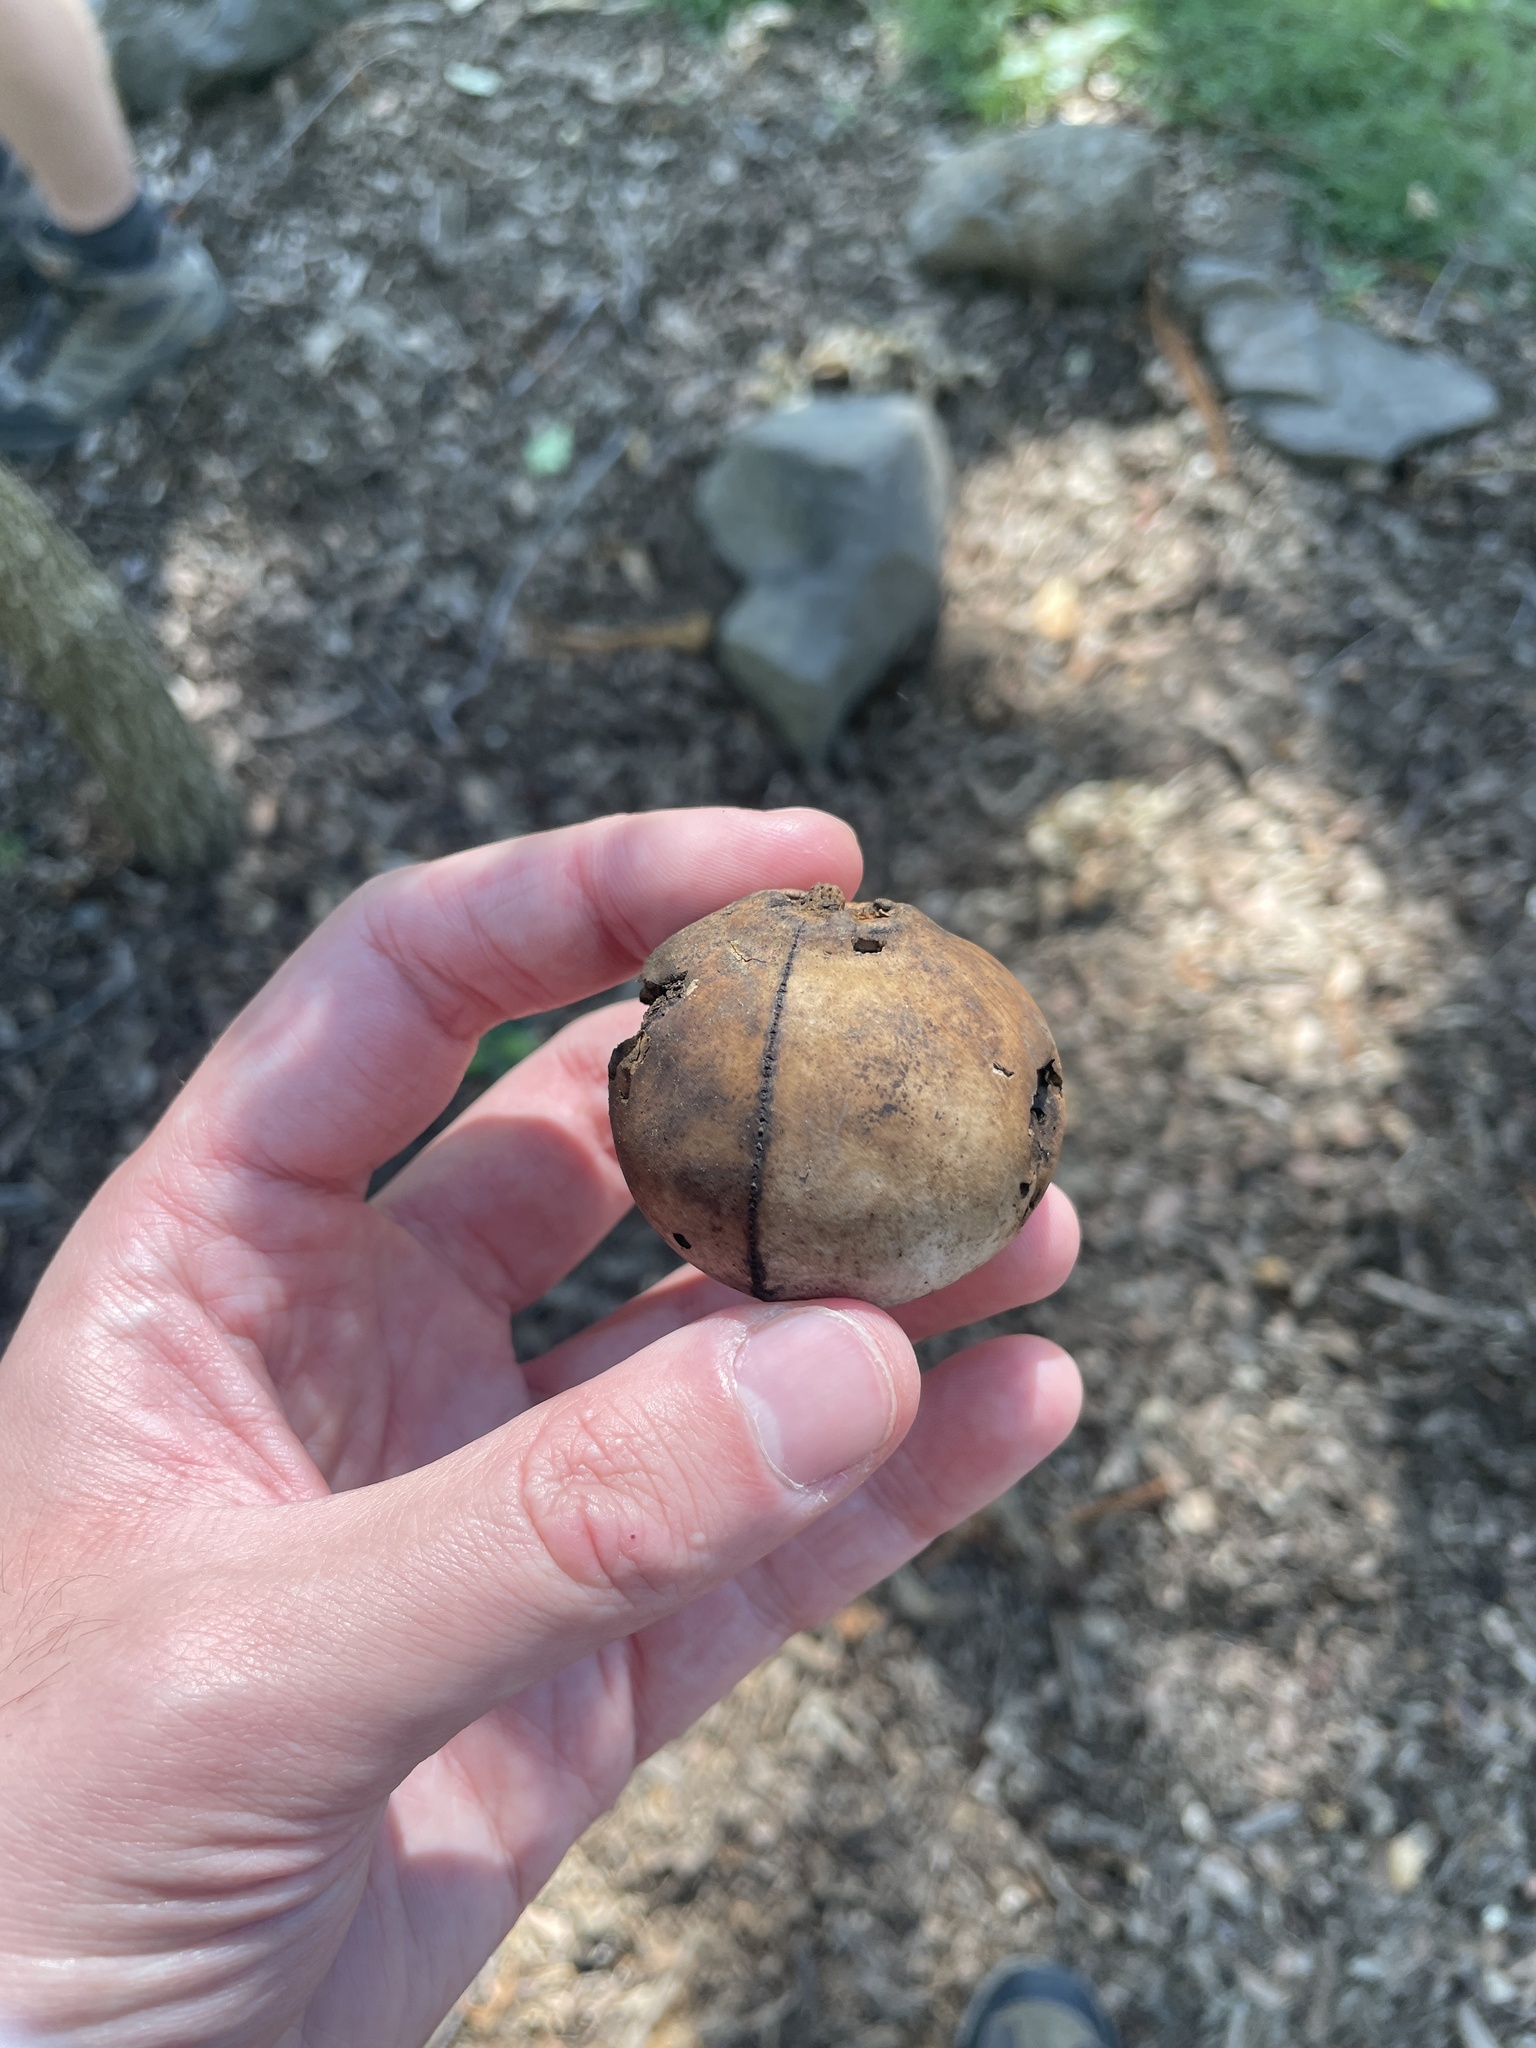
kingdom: Animalia
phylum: Arthropoda
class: Insecta
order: Hymenoptera
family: Cynipidae
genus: Andricus
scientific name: Andricus quercuscalifornicus
